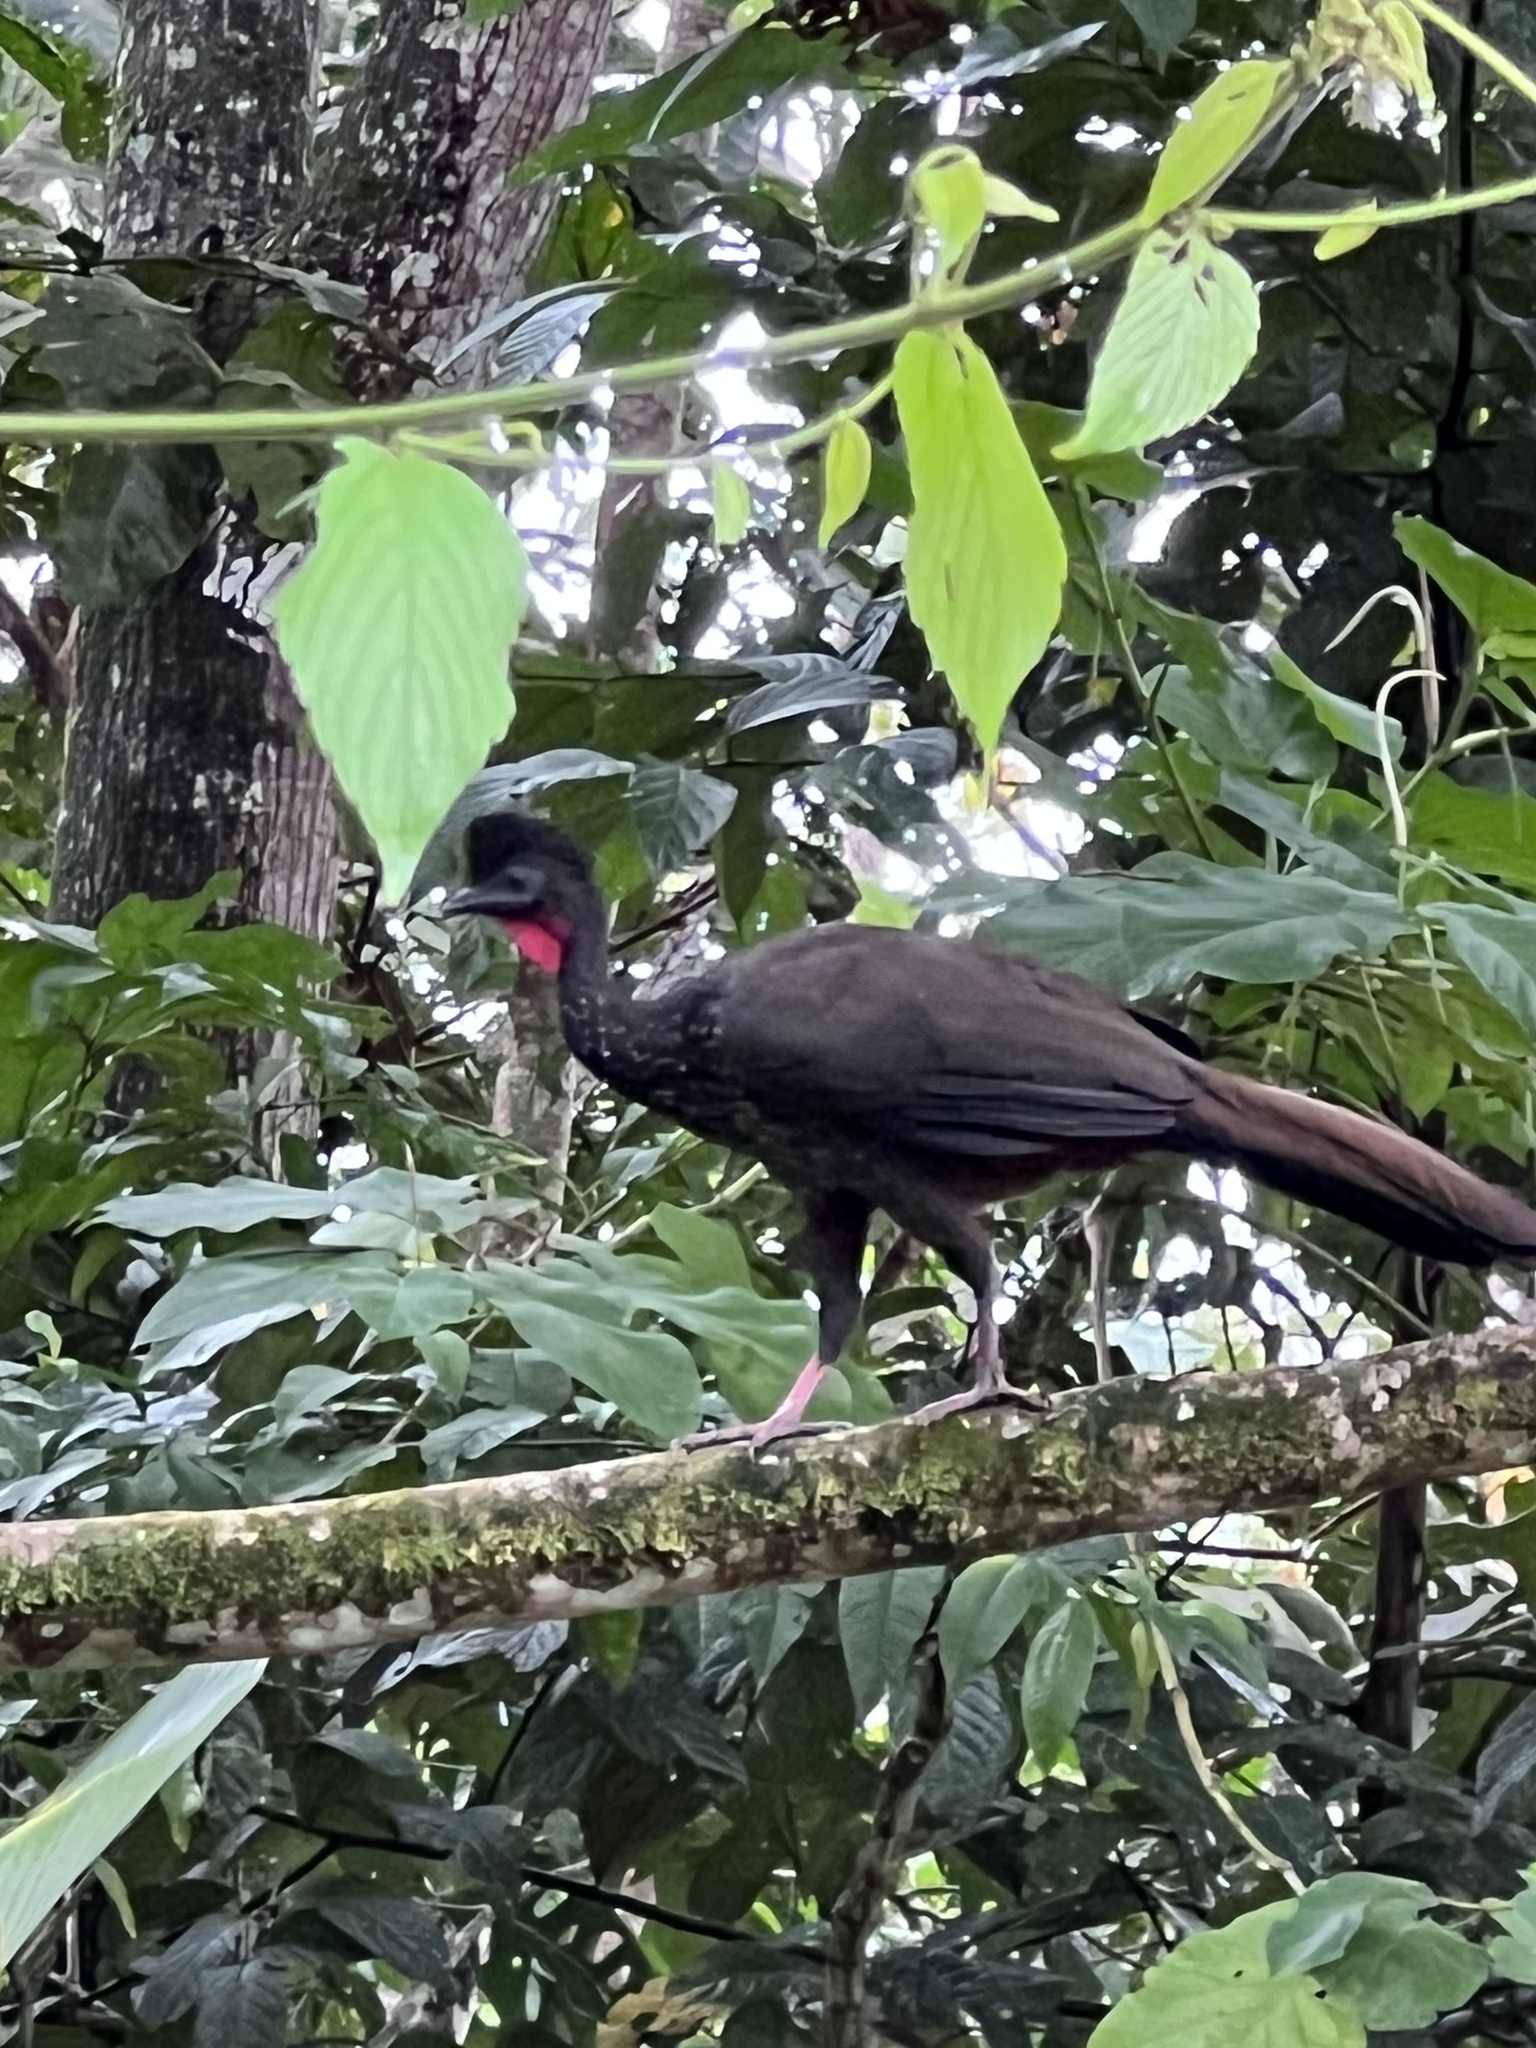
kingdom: Animalia
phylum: Chordata
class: Aves
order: Galliformes
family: Cracidae
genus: Penelope
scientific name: Penelope purpurascens
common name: Crested guan
